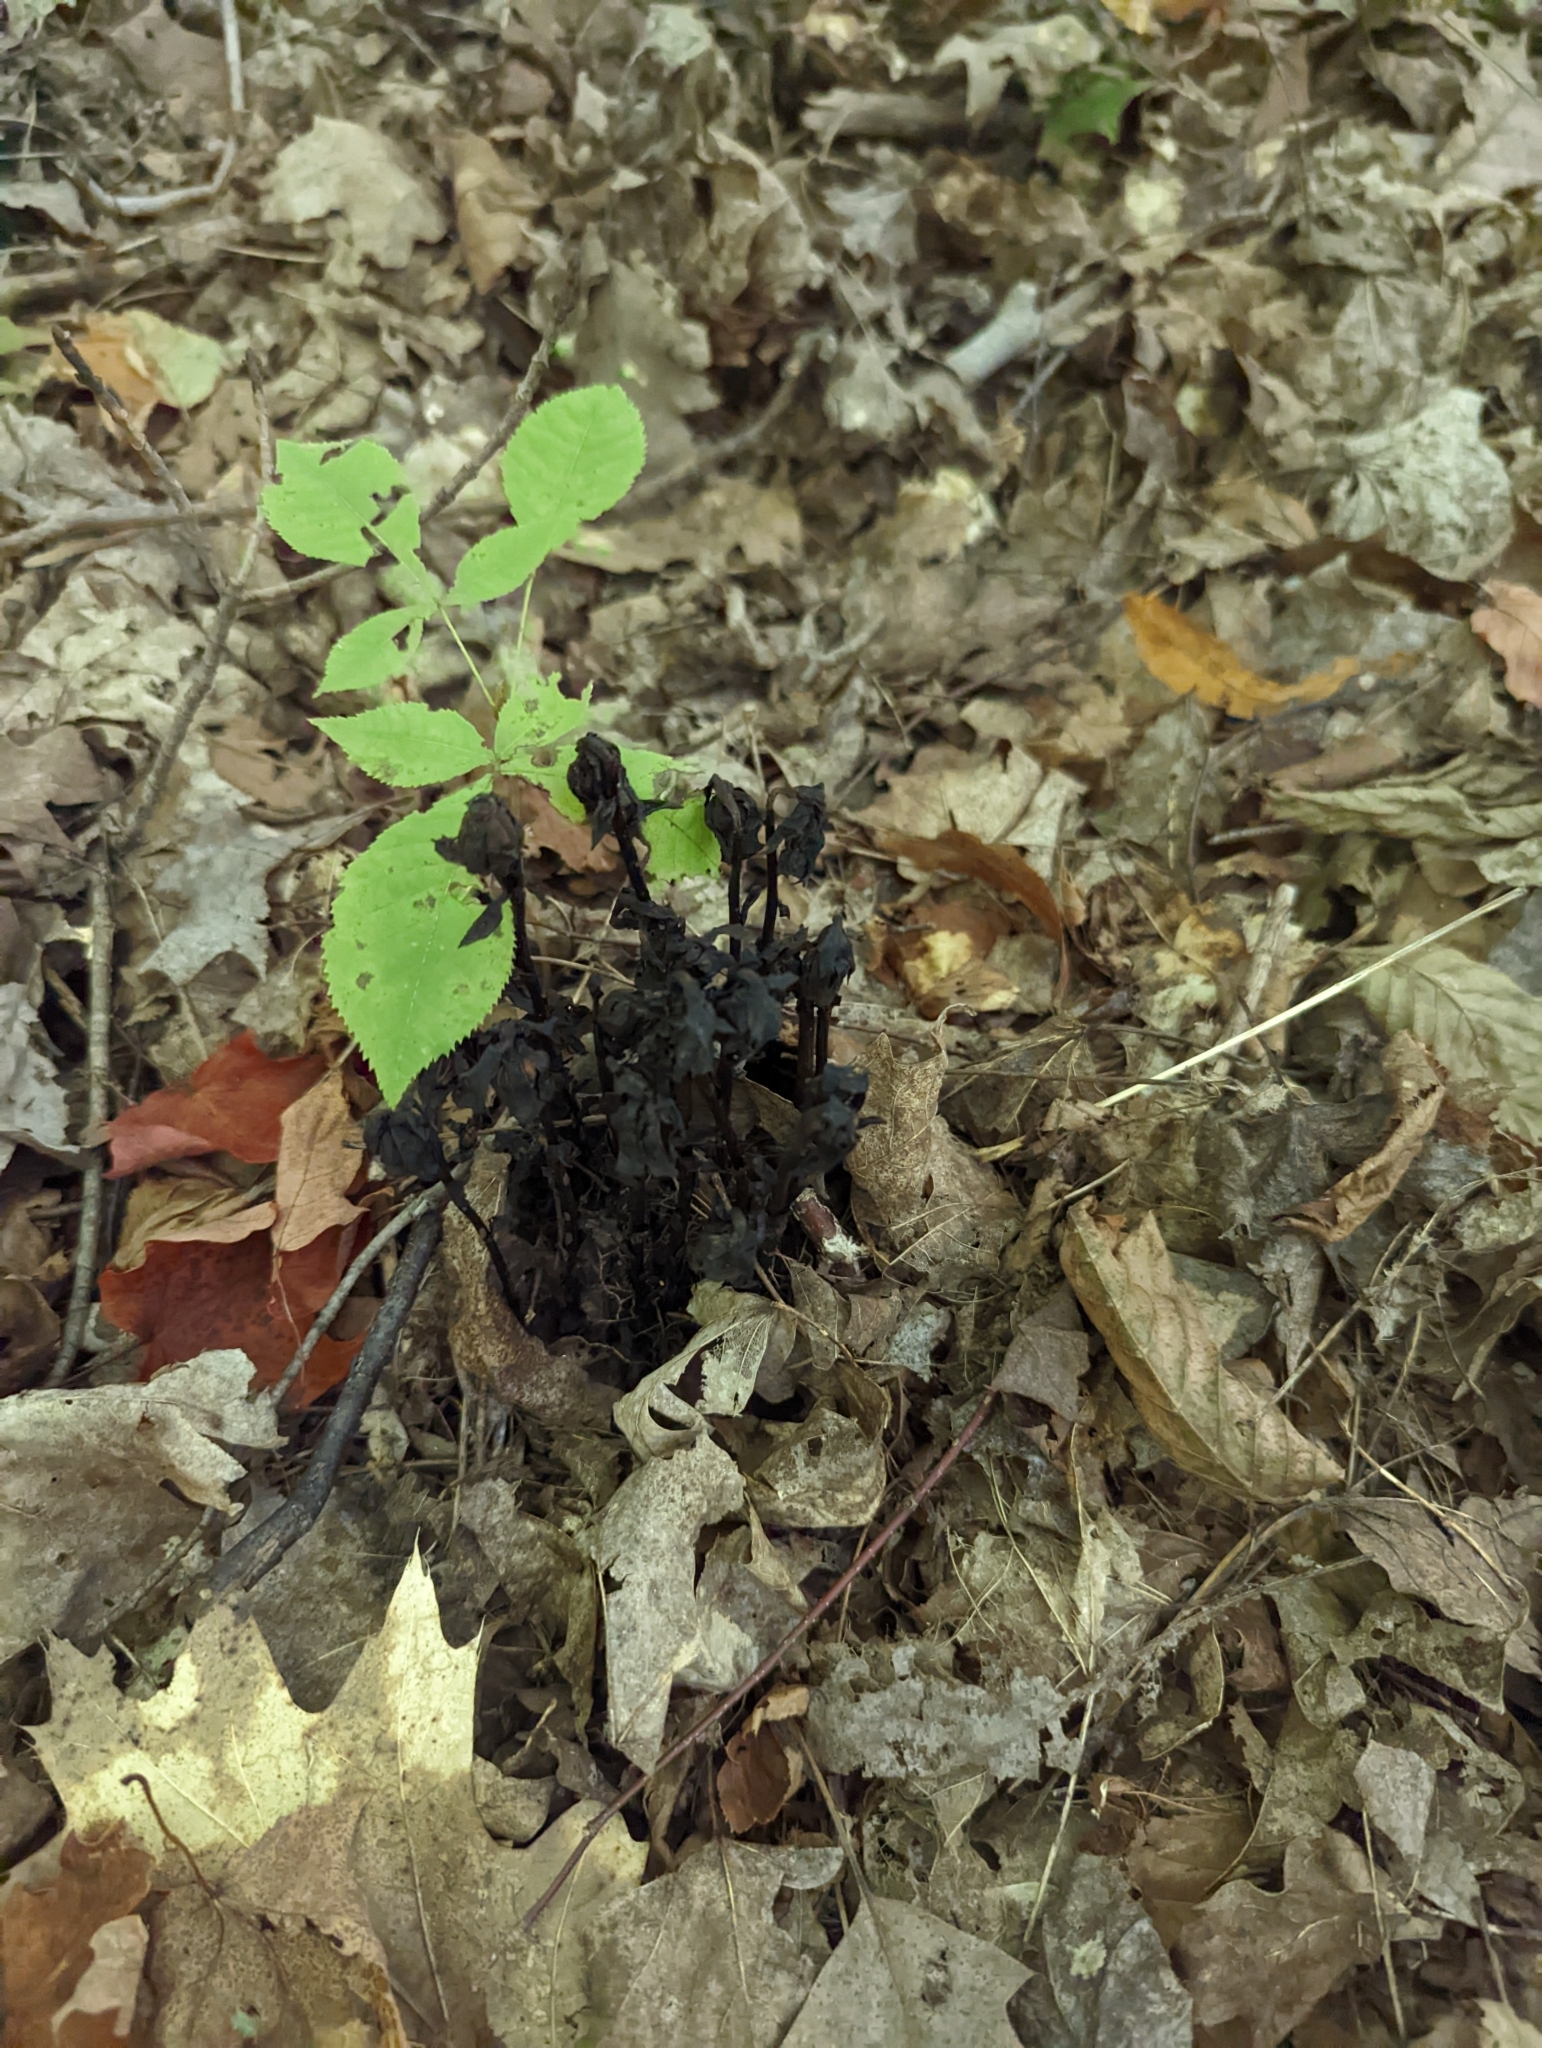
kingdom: Plantae
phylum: Tracheophyta
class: Magnoliopsida
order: Ericales
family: Ericaceae
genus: Monotropa
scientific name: Monotropa uniflora
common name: Convulsion root
